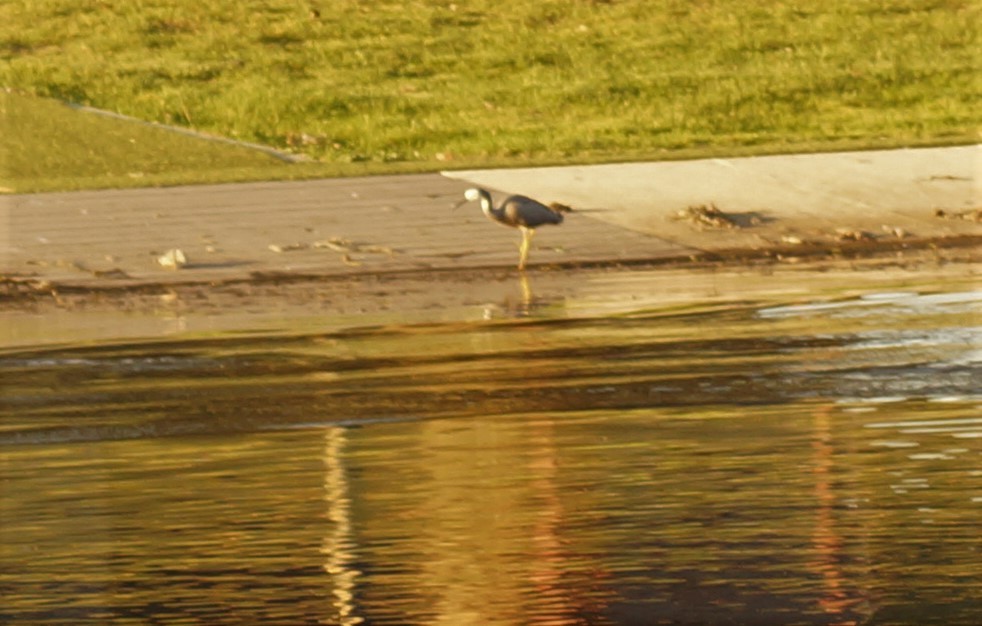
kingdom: Animalia
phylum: Chordata
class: Aves
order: Pelecaniformes
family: Ardeidae
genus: Egretta
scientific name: Egretta novaehollandiae
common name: White-faced heron
